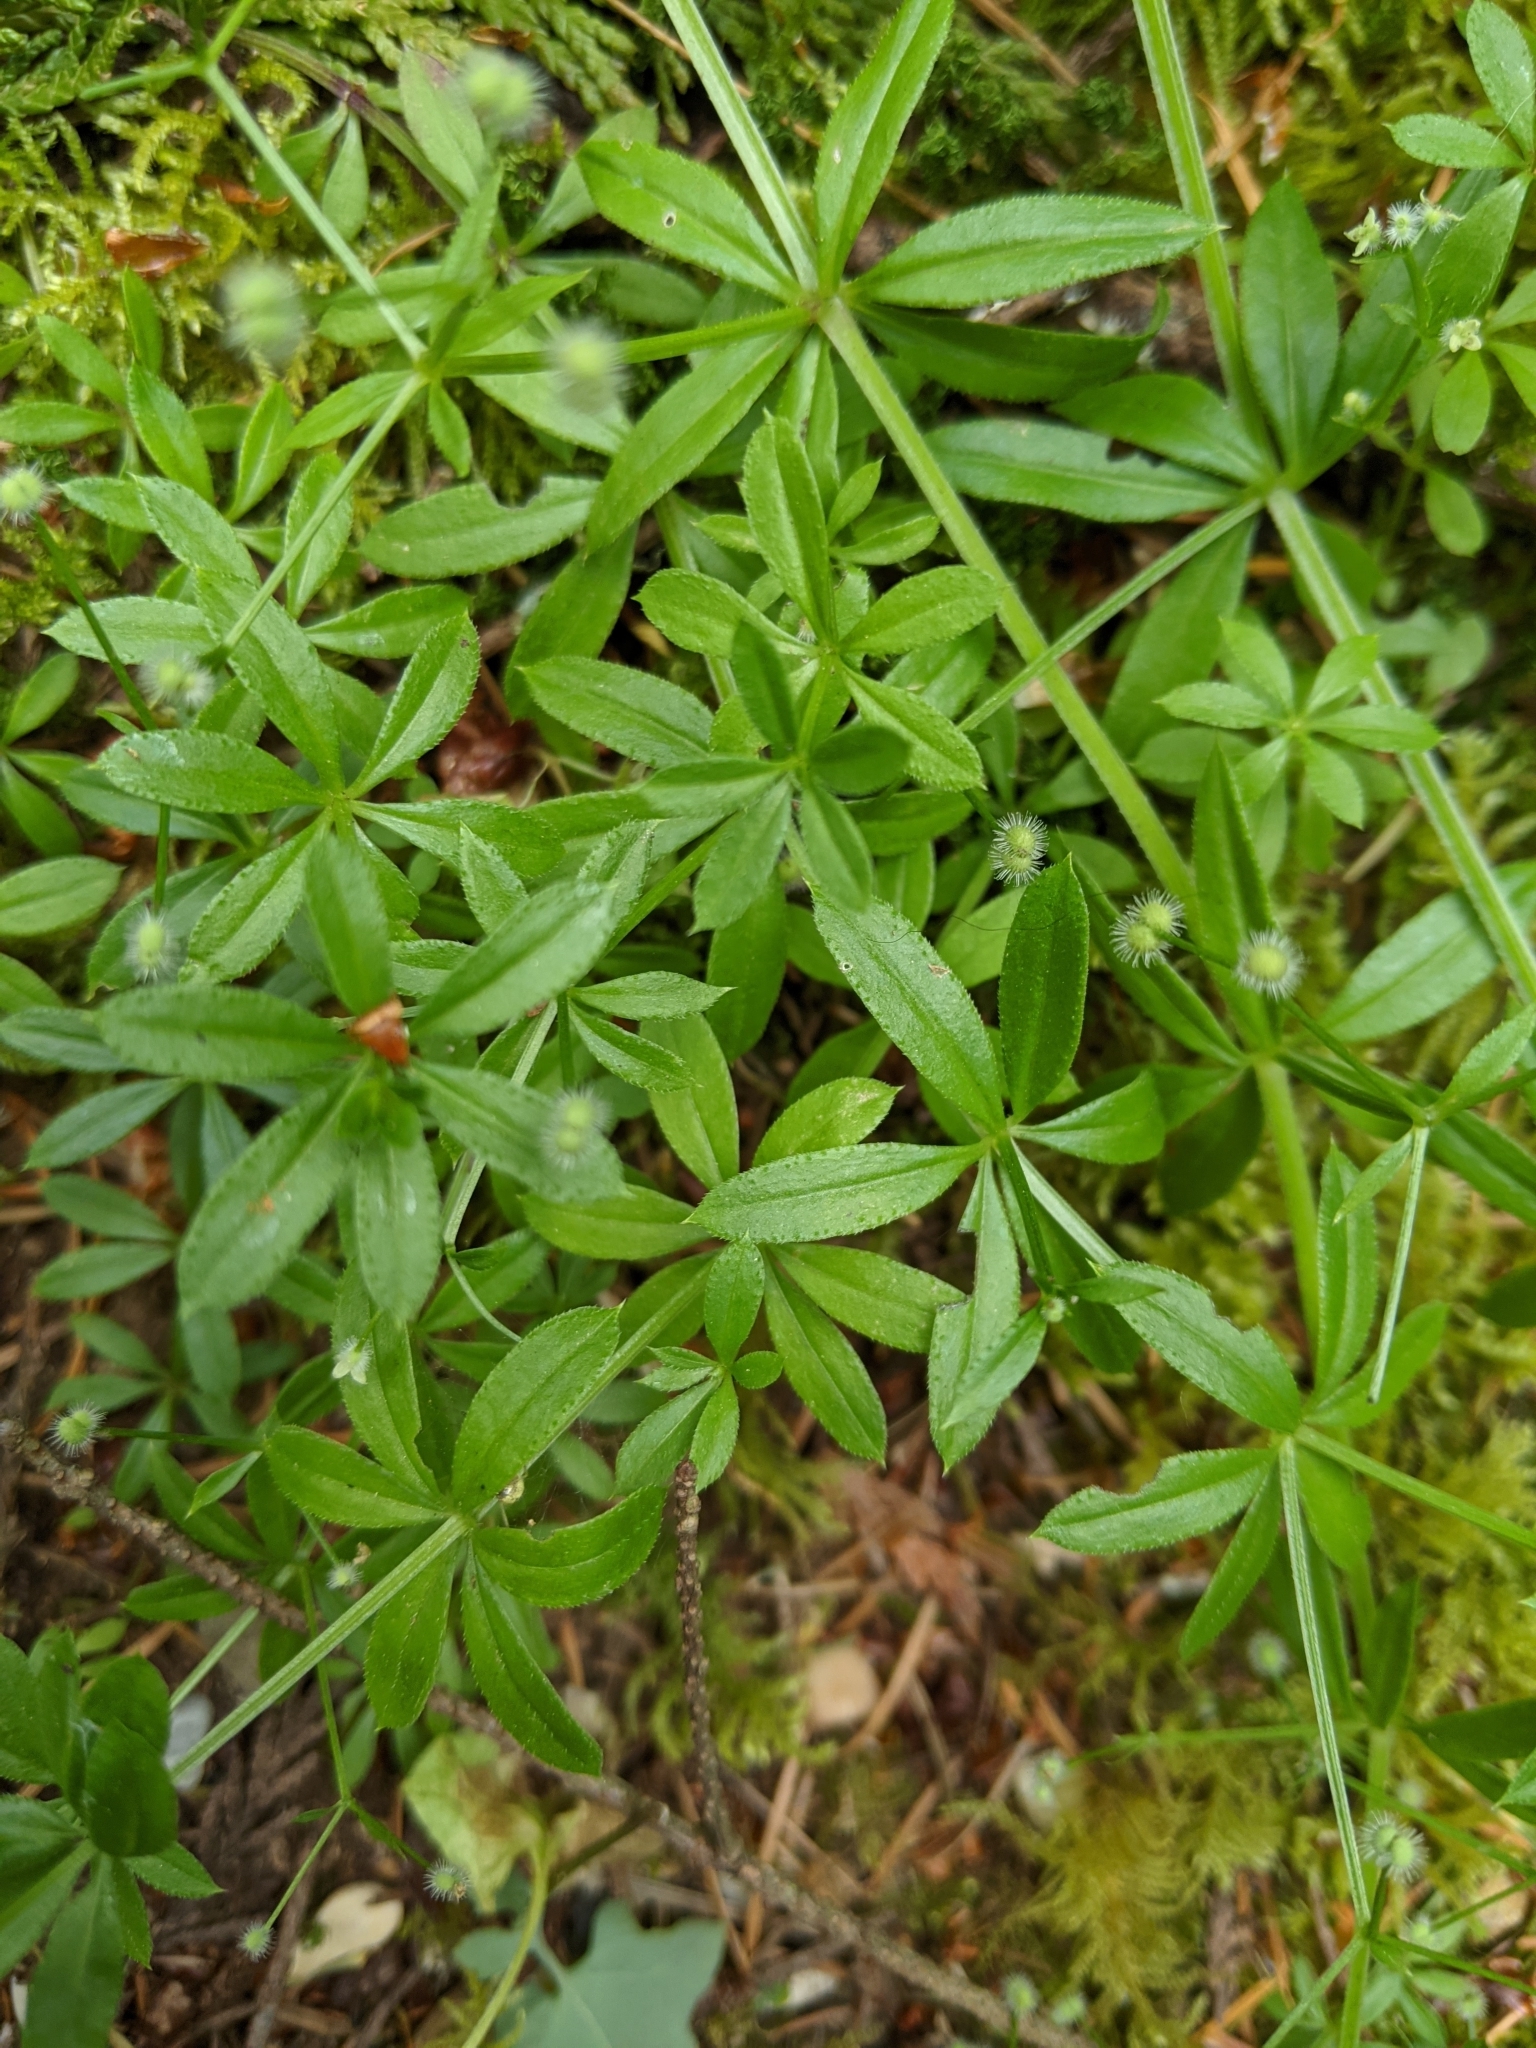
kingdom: Plantae
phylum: Tracheophyta
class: Magnoliopsida
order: Gentianales
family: Rubiaceae
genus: Galium
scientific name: Galium triflorum
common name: Fragrant bedstraw
